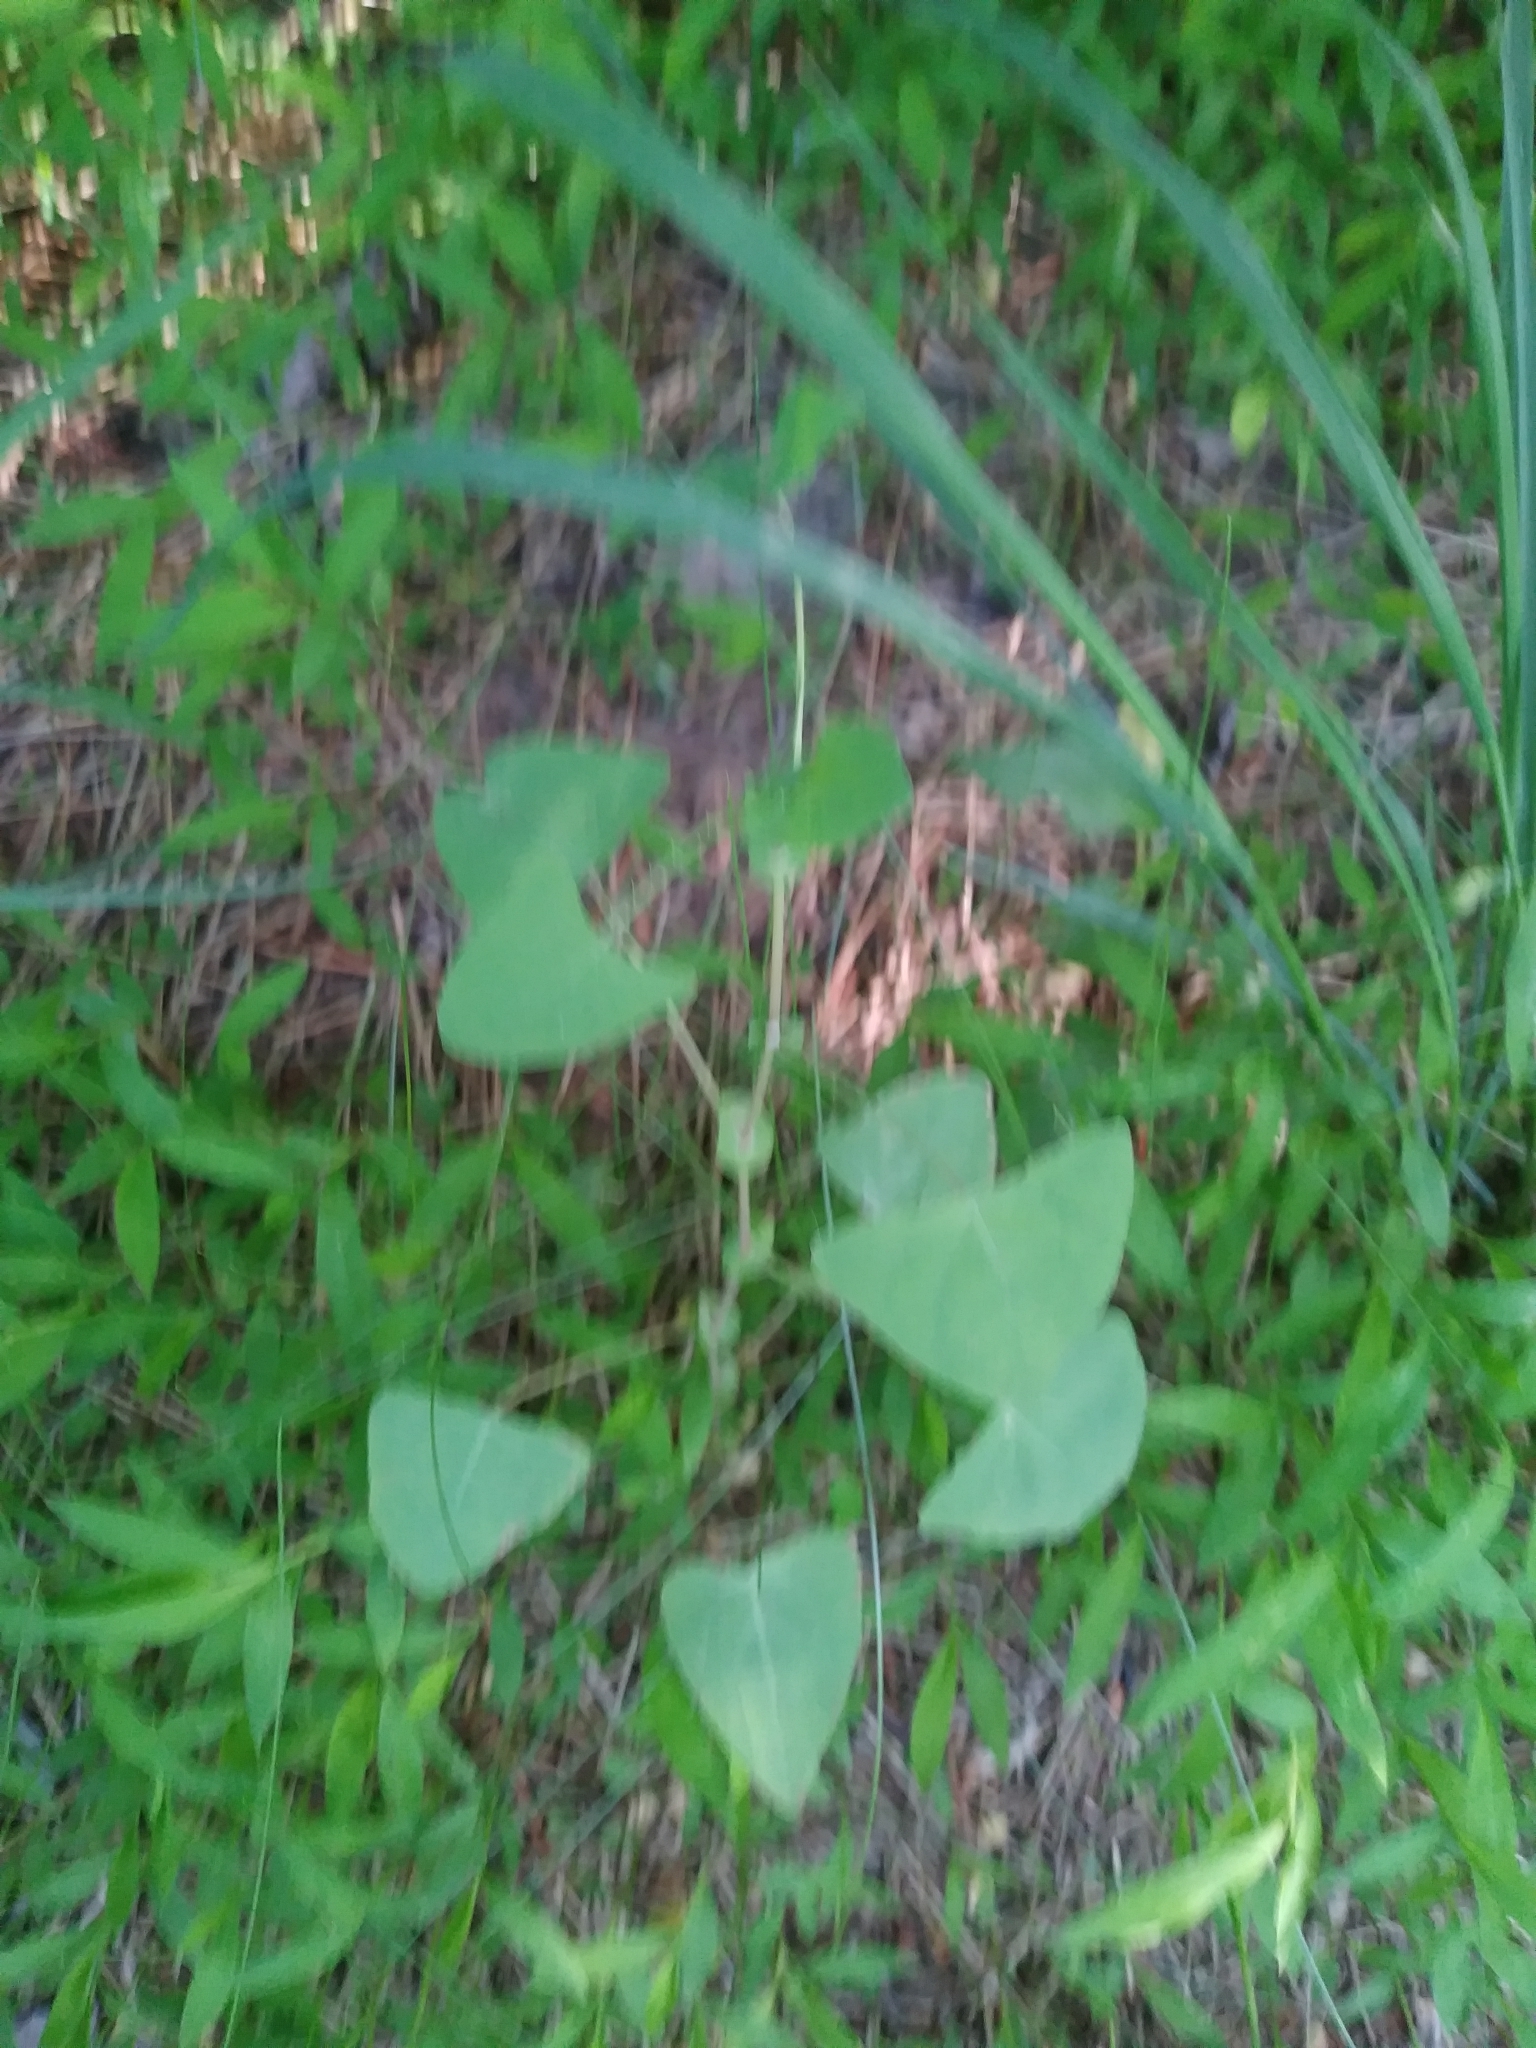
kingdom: Plantae
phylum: Tracheophyta
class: Magnoliopsida
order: Caryophyllales
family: Polygonaceae
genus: Persicaria
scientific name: Persicaria perfoliata
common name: Asiatic tearthumb
